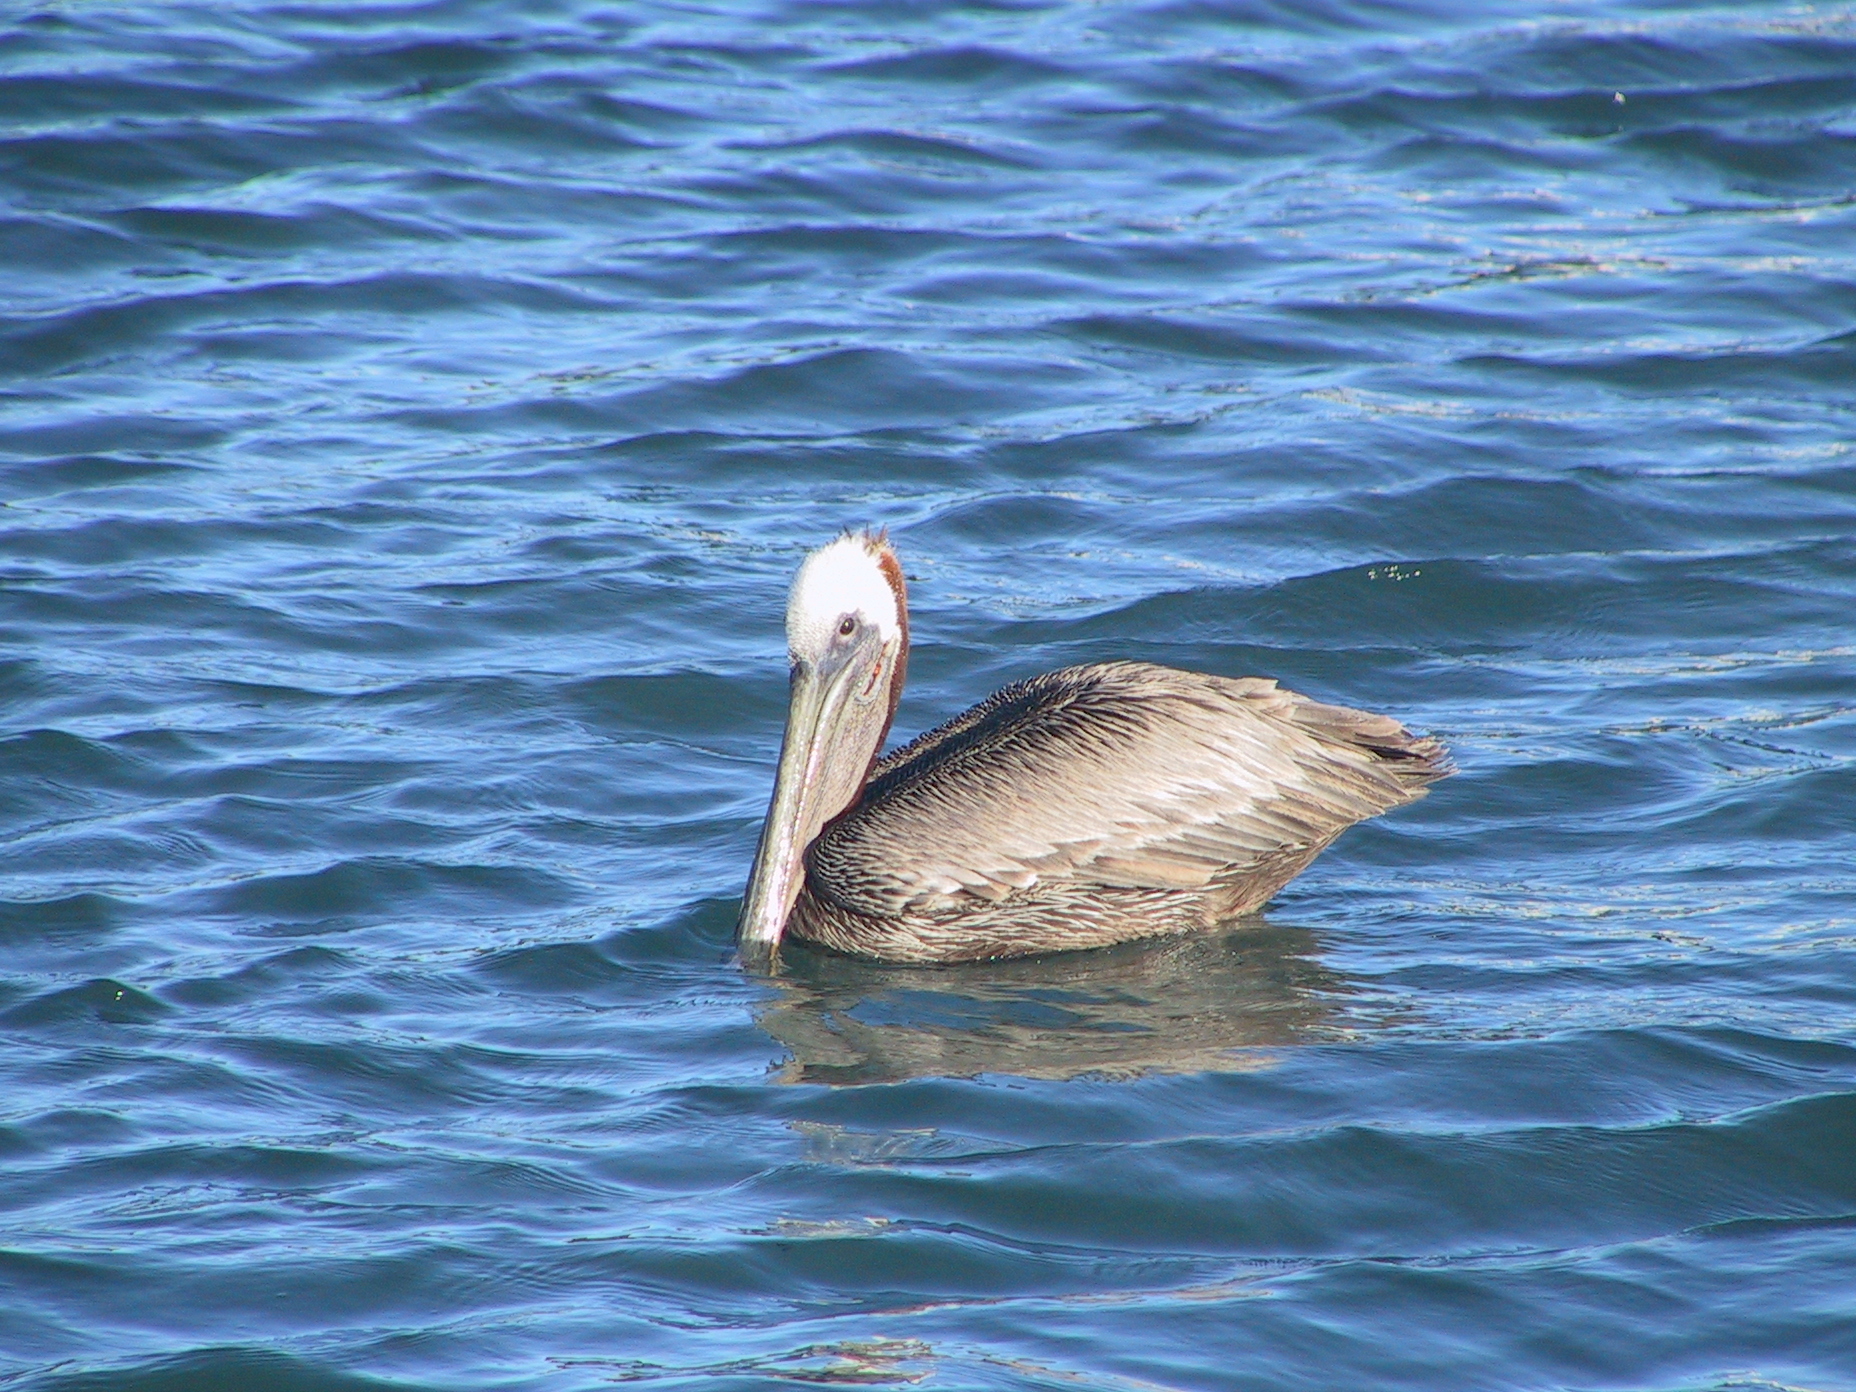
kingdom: Animalia
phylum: Chordata
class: Aves
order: Pelecaniformes
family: Pelecanidae
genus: Pelecanus
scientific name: Pelecanus occidentalis
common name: Brown pelican
